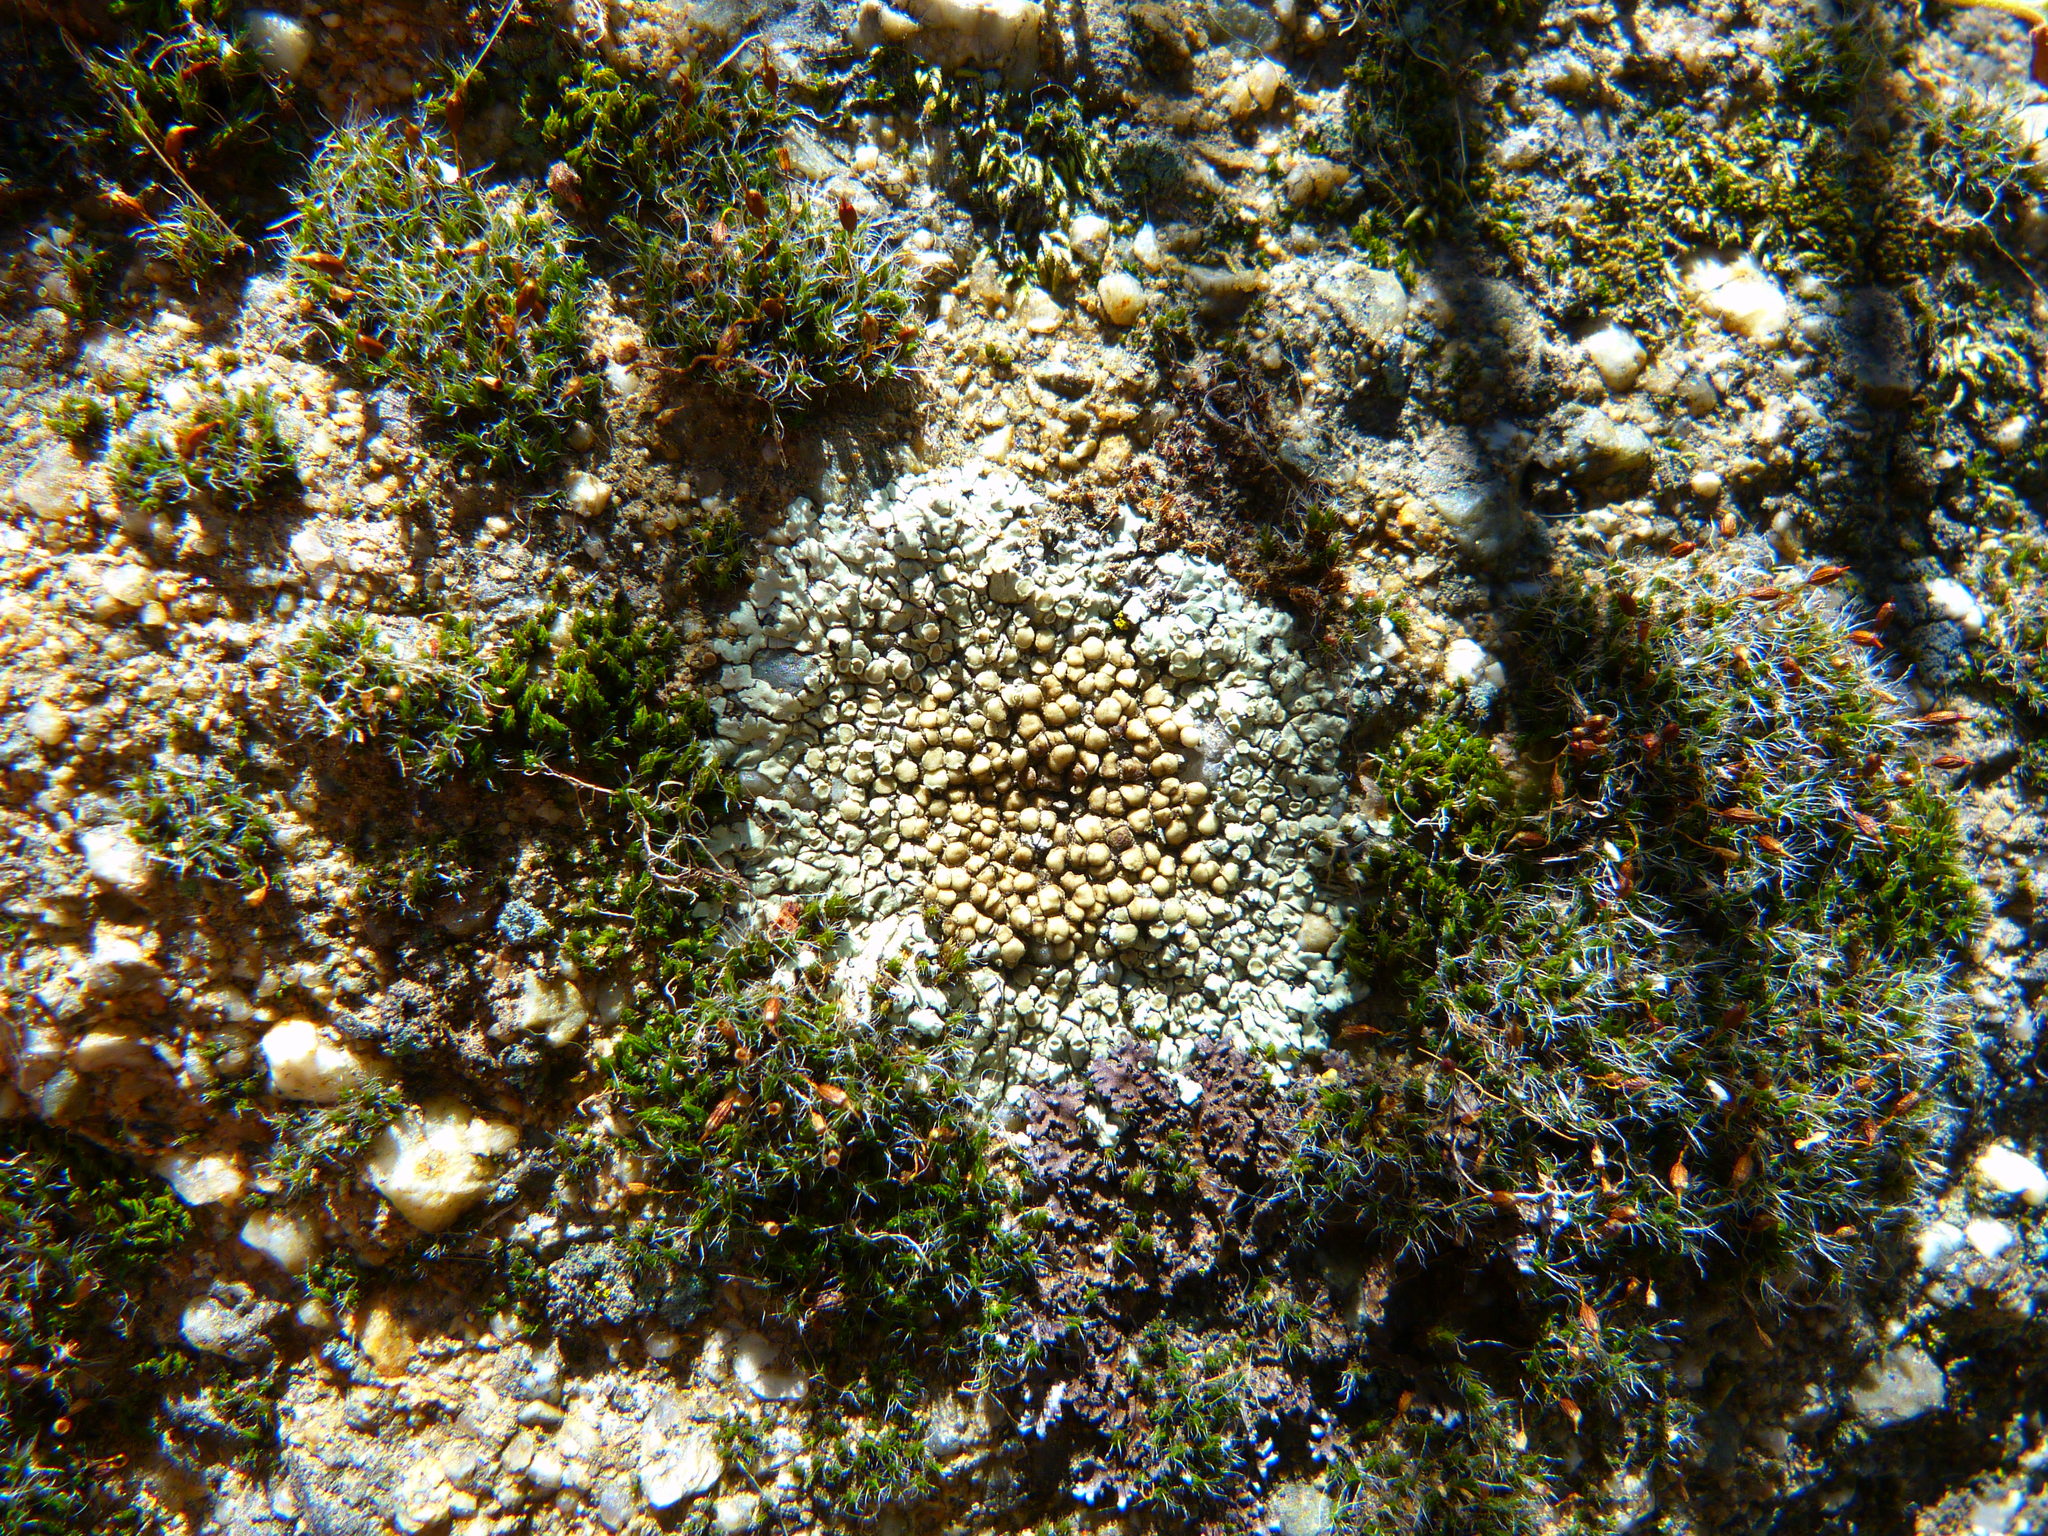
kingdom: Fungi
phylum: Ascomycota
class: Lecanoromycetes
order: Lecanorales
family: Lecanoraceae
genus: Protoparmeliopsis
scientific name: Protoparmeliopsis muralis
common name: Stonewall rim lichen
